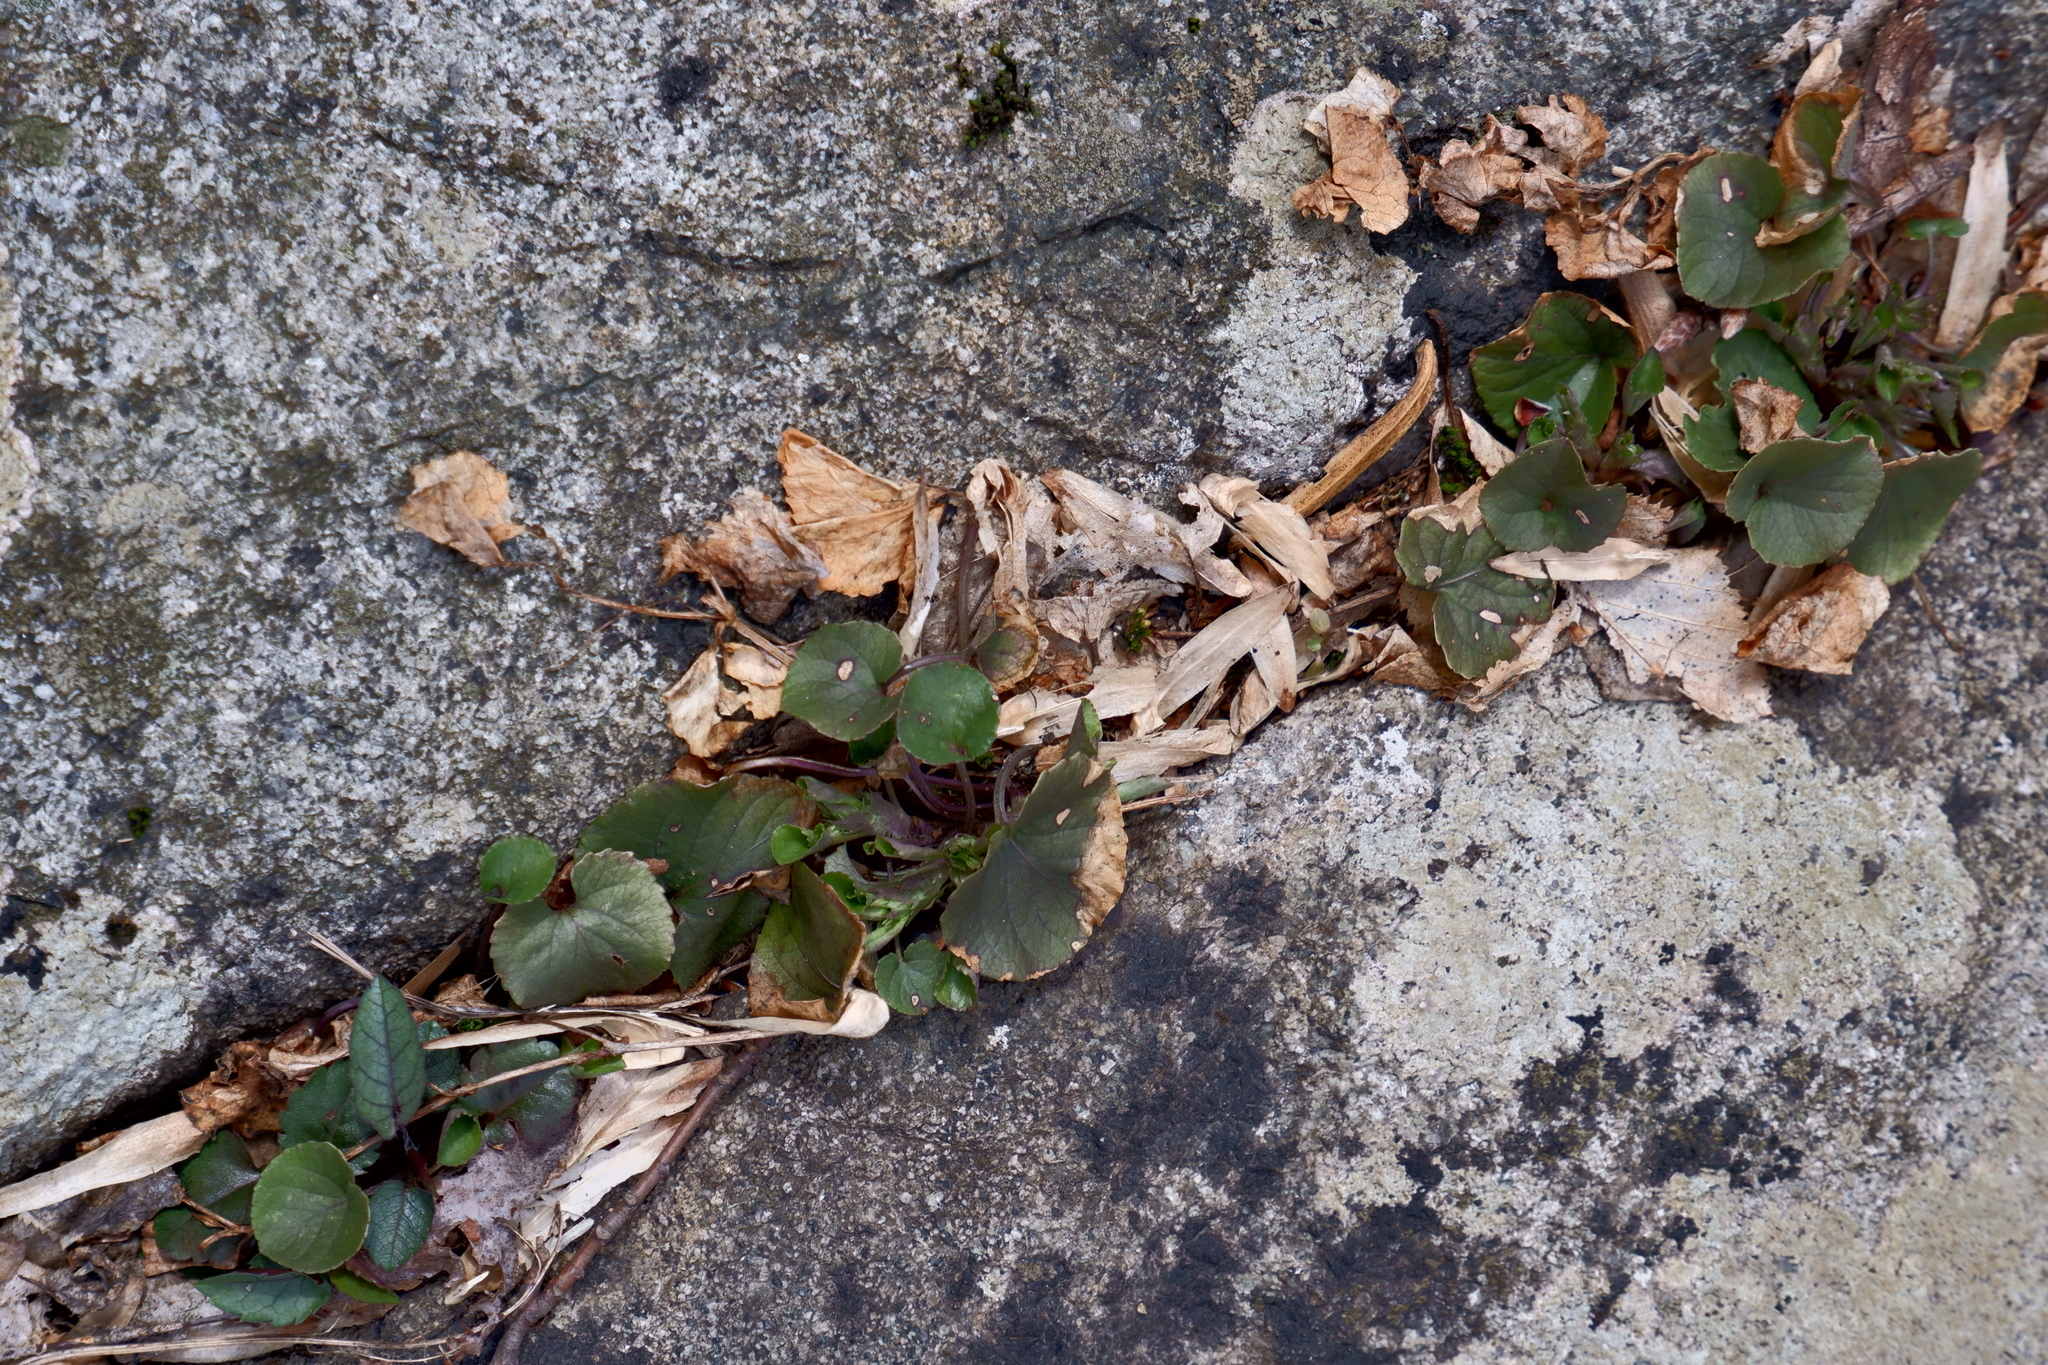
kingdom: Plantae
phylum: Tracheophyta
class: Magnoliopsida
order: Malpighiales
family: Violaceae
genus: Viola
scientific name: Viola rostrata
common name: Long-spur violet
